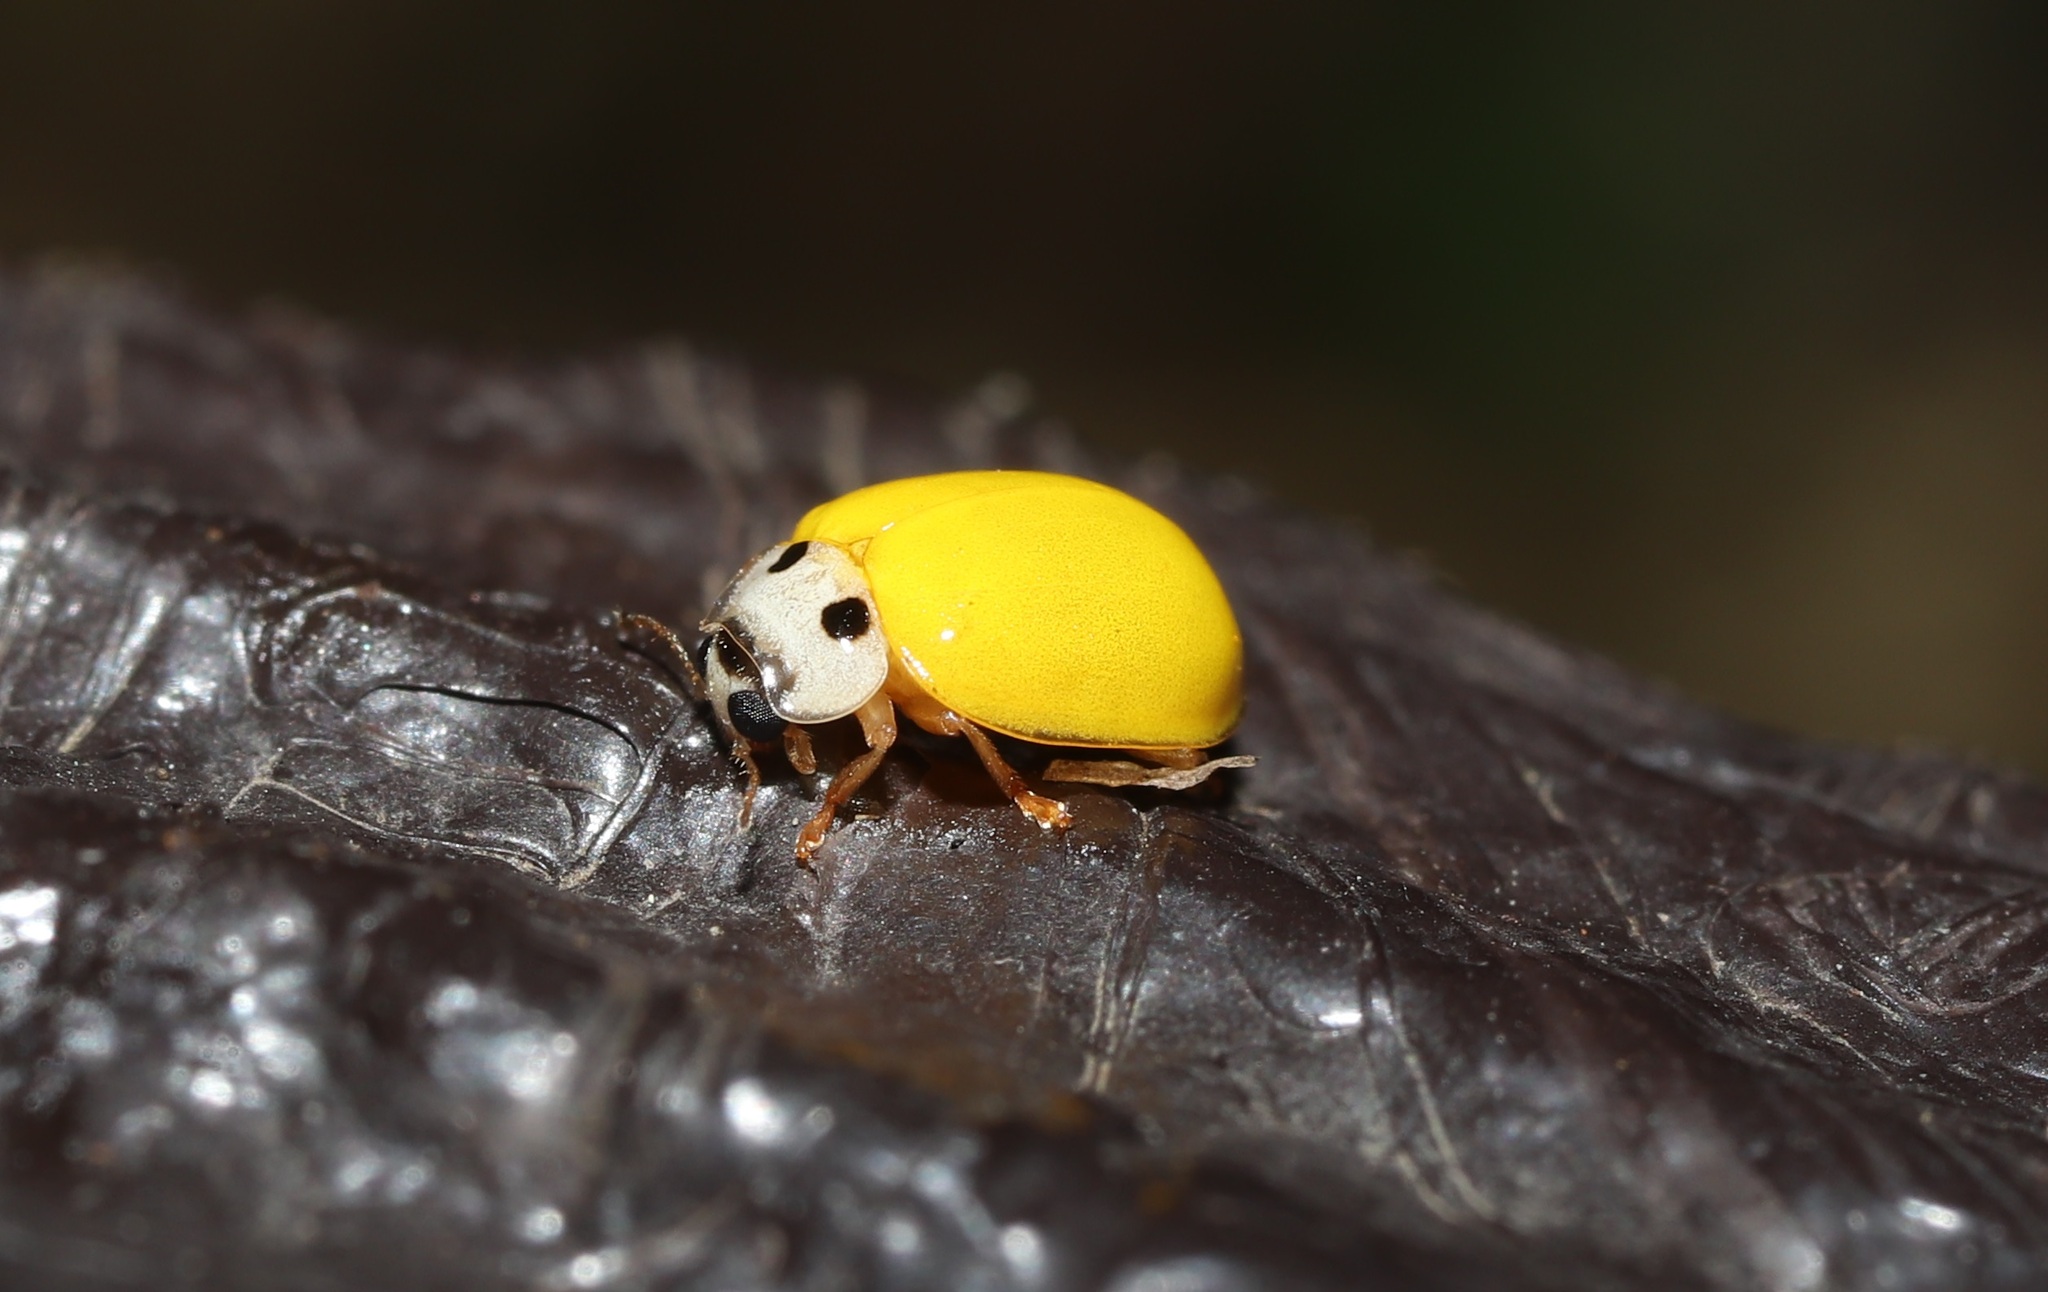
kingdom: Animalia
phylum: Arthropoda
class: Insecta
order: Coleoptera
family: Coccinellidae
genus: Illeis
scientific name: Illeis koebelei
